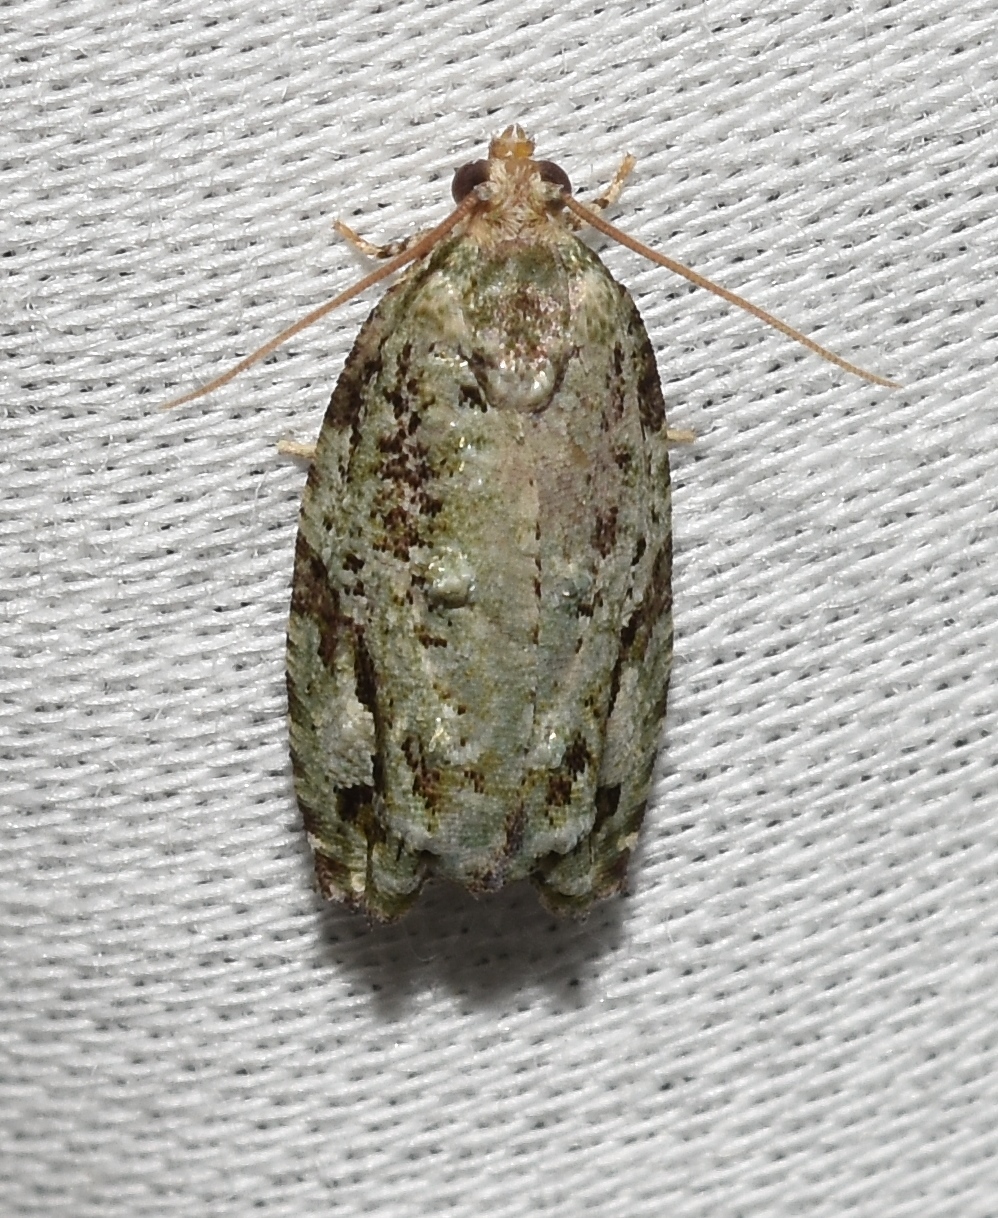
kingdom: Animalia
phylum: Arthropoda
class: Insecta
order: Lepidoptera
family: Tortricidae
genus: Proteoteras
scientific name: Proteoteras moffatiana
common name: Maple bud borer moth
